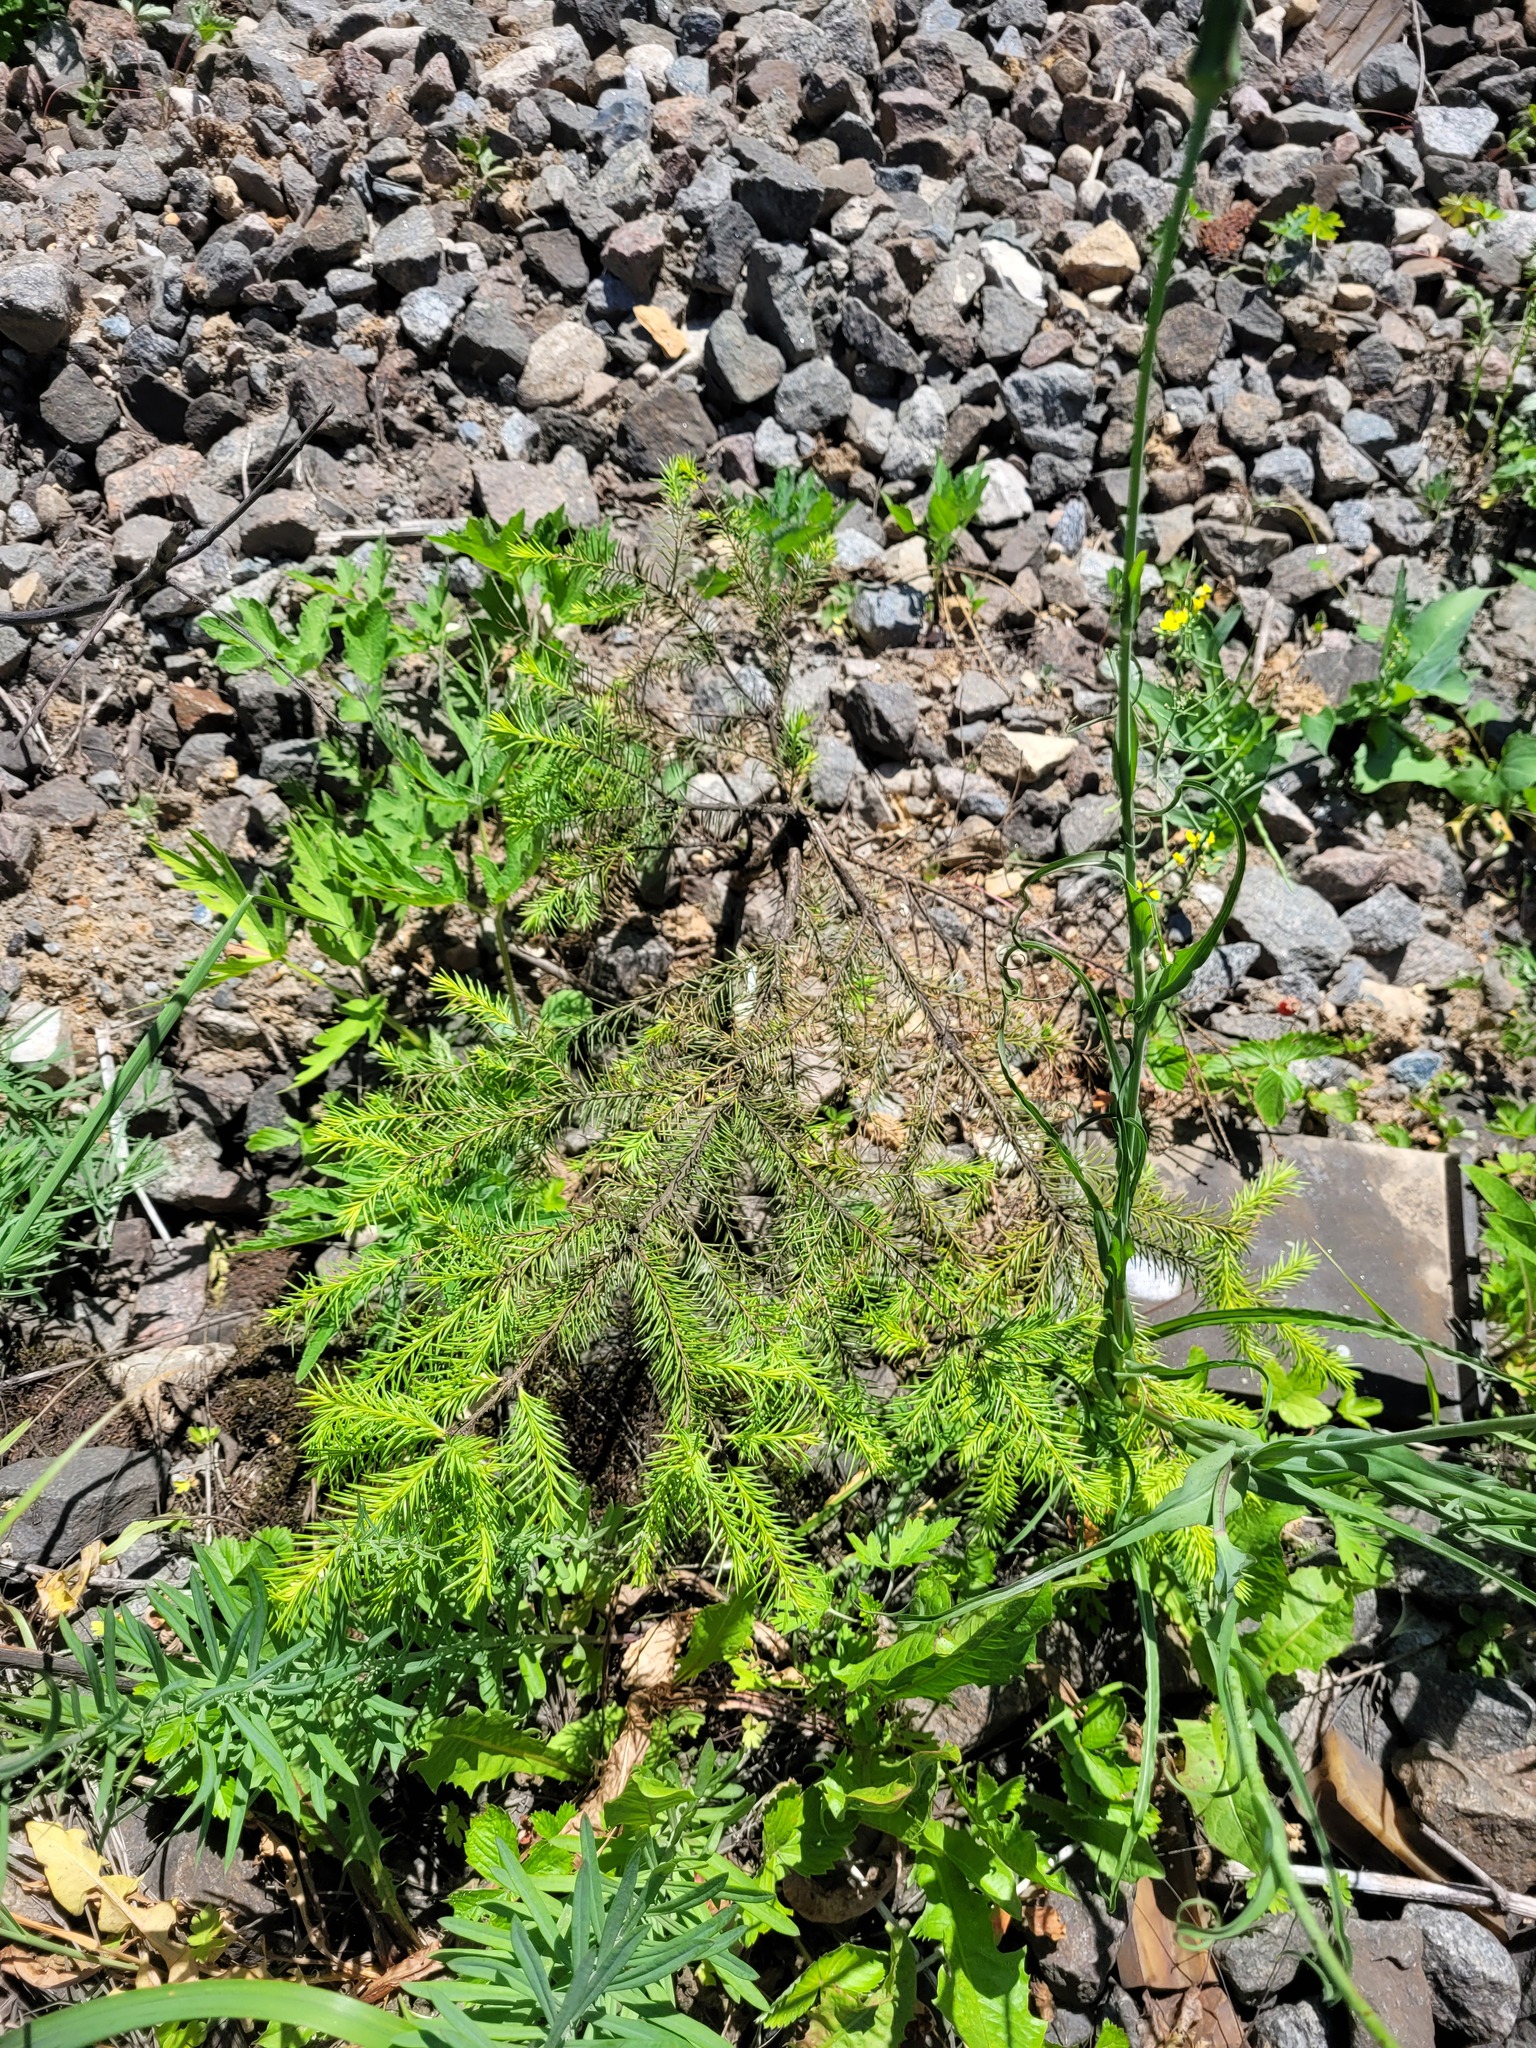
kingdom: Plantae
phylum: Tracheophyta
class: Pinopsida
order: Pinales
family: Pinaceae
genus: Picea
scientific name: Picea abies
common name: Norway spruce
